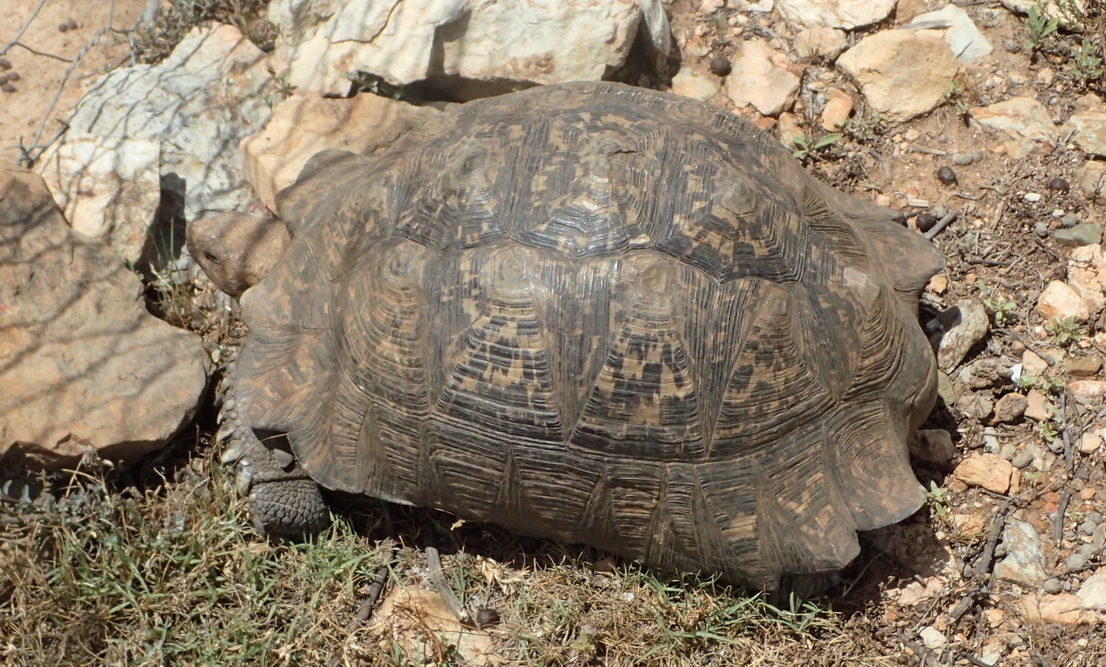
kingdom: Animalia
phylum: Chordata
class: Testudines
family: Testudinidae
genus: Stigmochelys
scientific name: Stigmochelys pardalis
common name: Leopard tortoise
